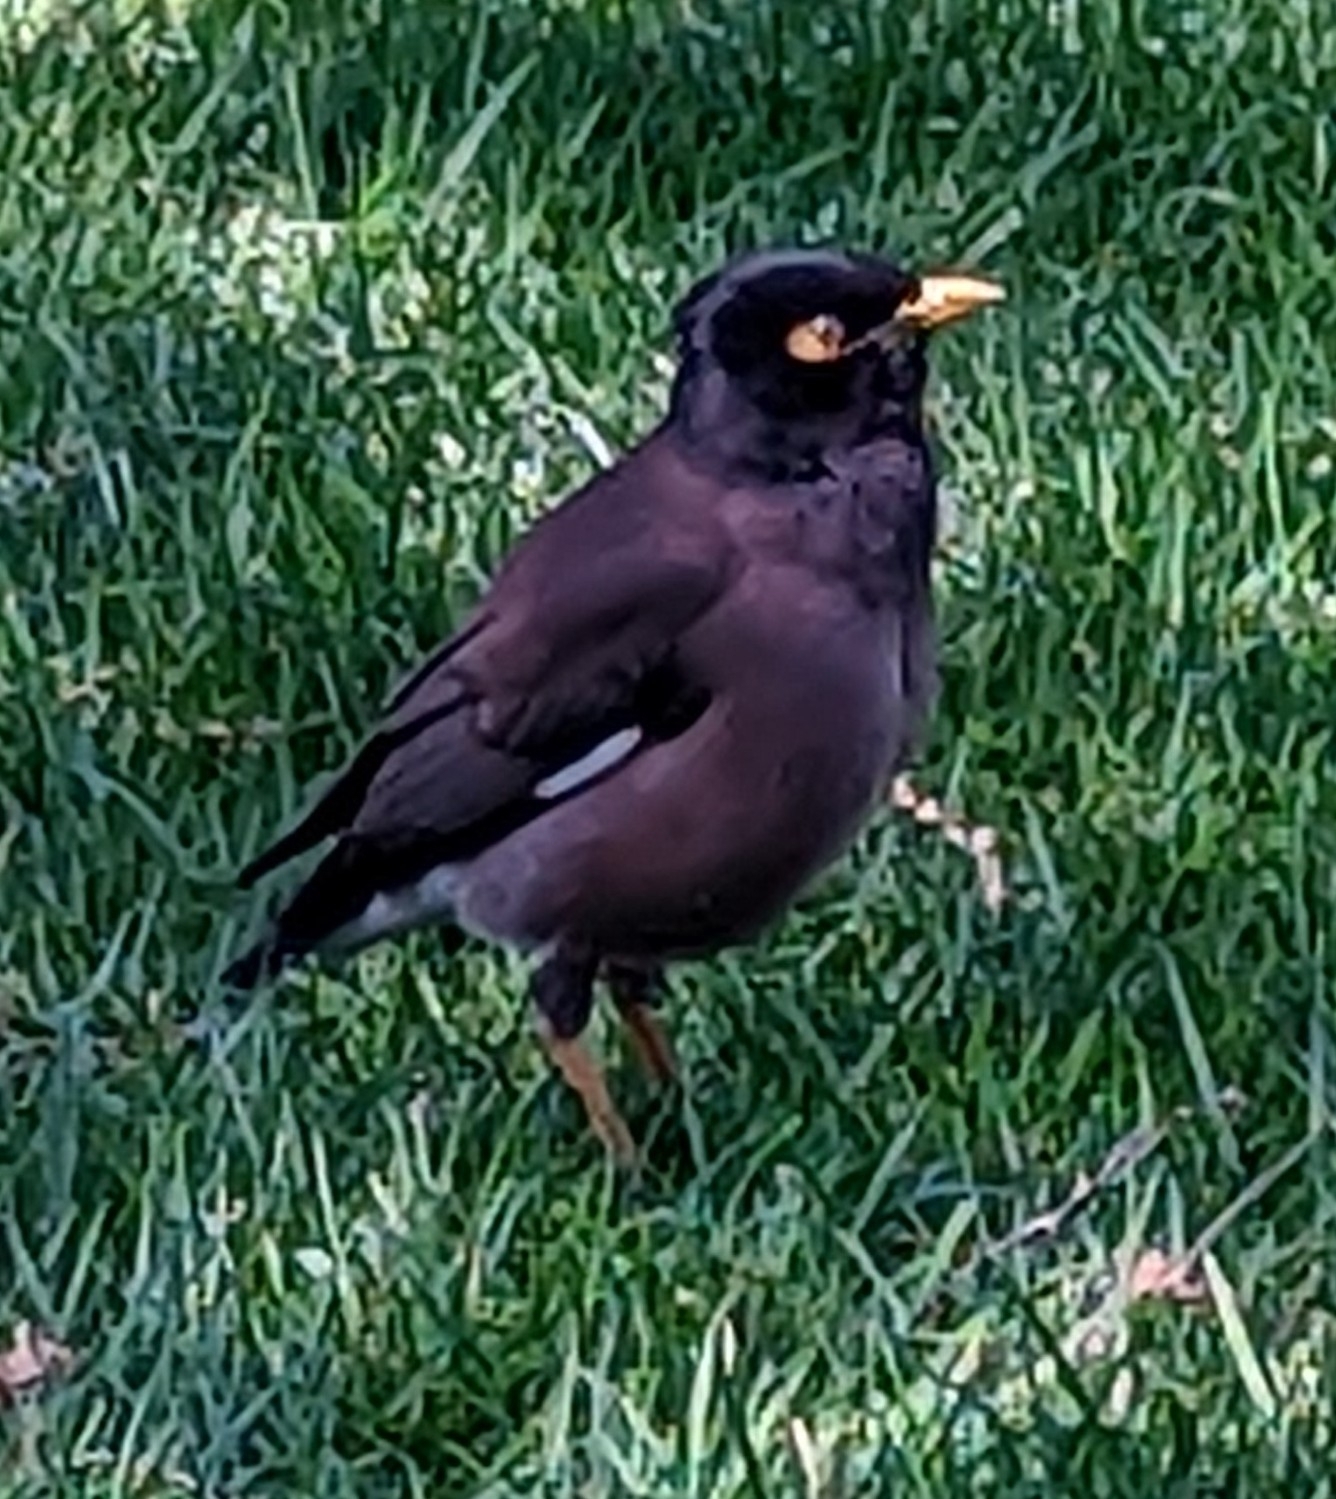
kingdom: Animalia
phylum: Chordata
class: Aves
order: Passeriformes
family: Sturnidae
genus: Acridotheres
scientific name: Acridotheres tristis
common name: Common myna
